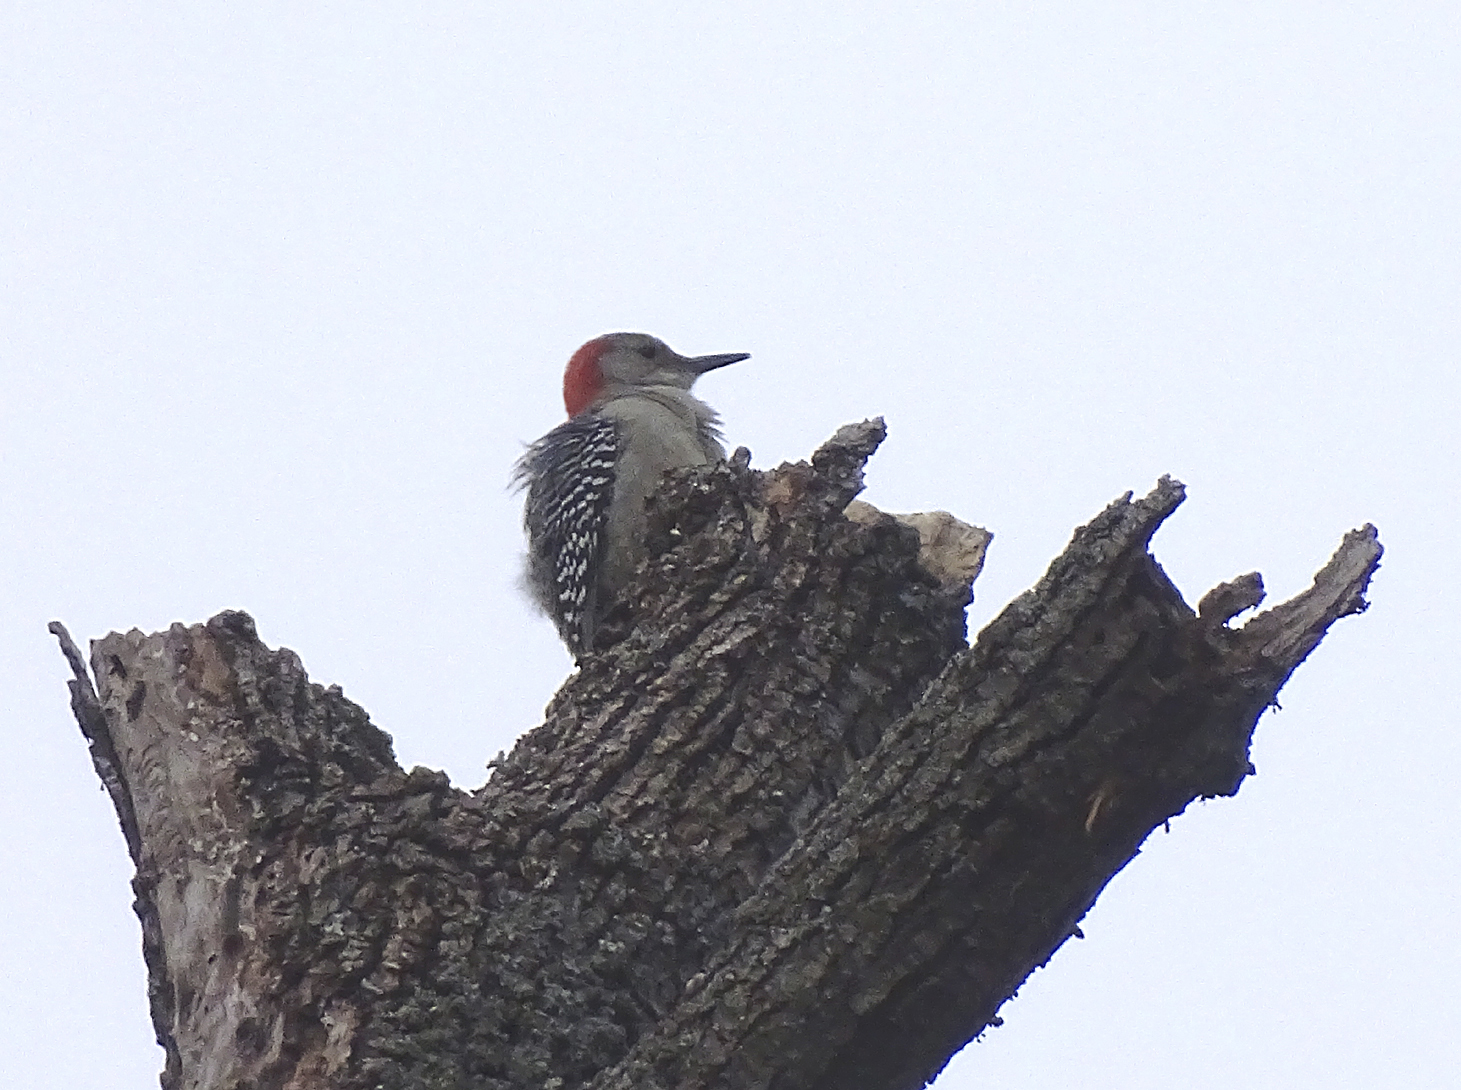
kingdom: Animalia
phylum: Chordata
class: Aves
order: Piciformes
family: Picidae
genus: Melanerpes
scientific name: Melanerpes carolinus
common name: Red-bellied woodpecker
